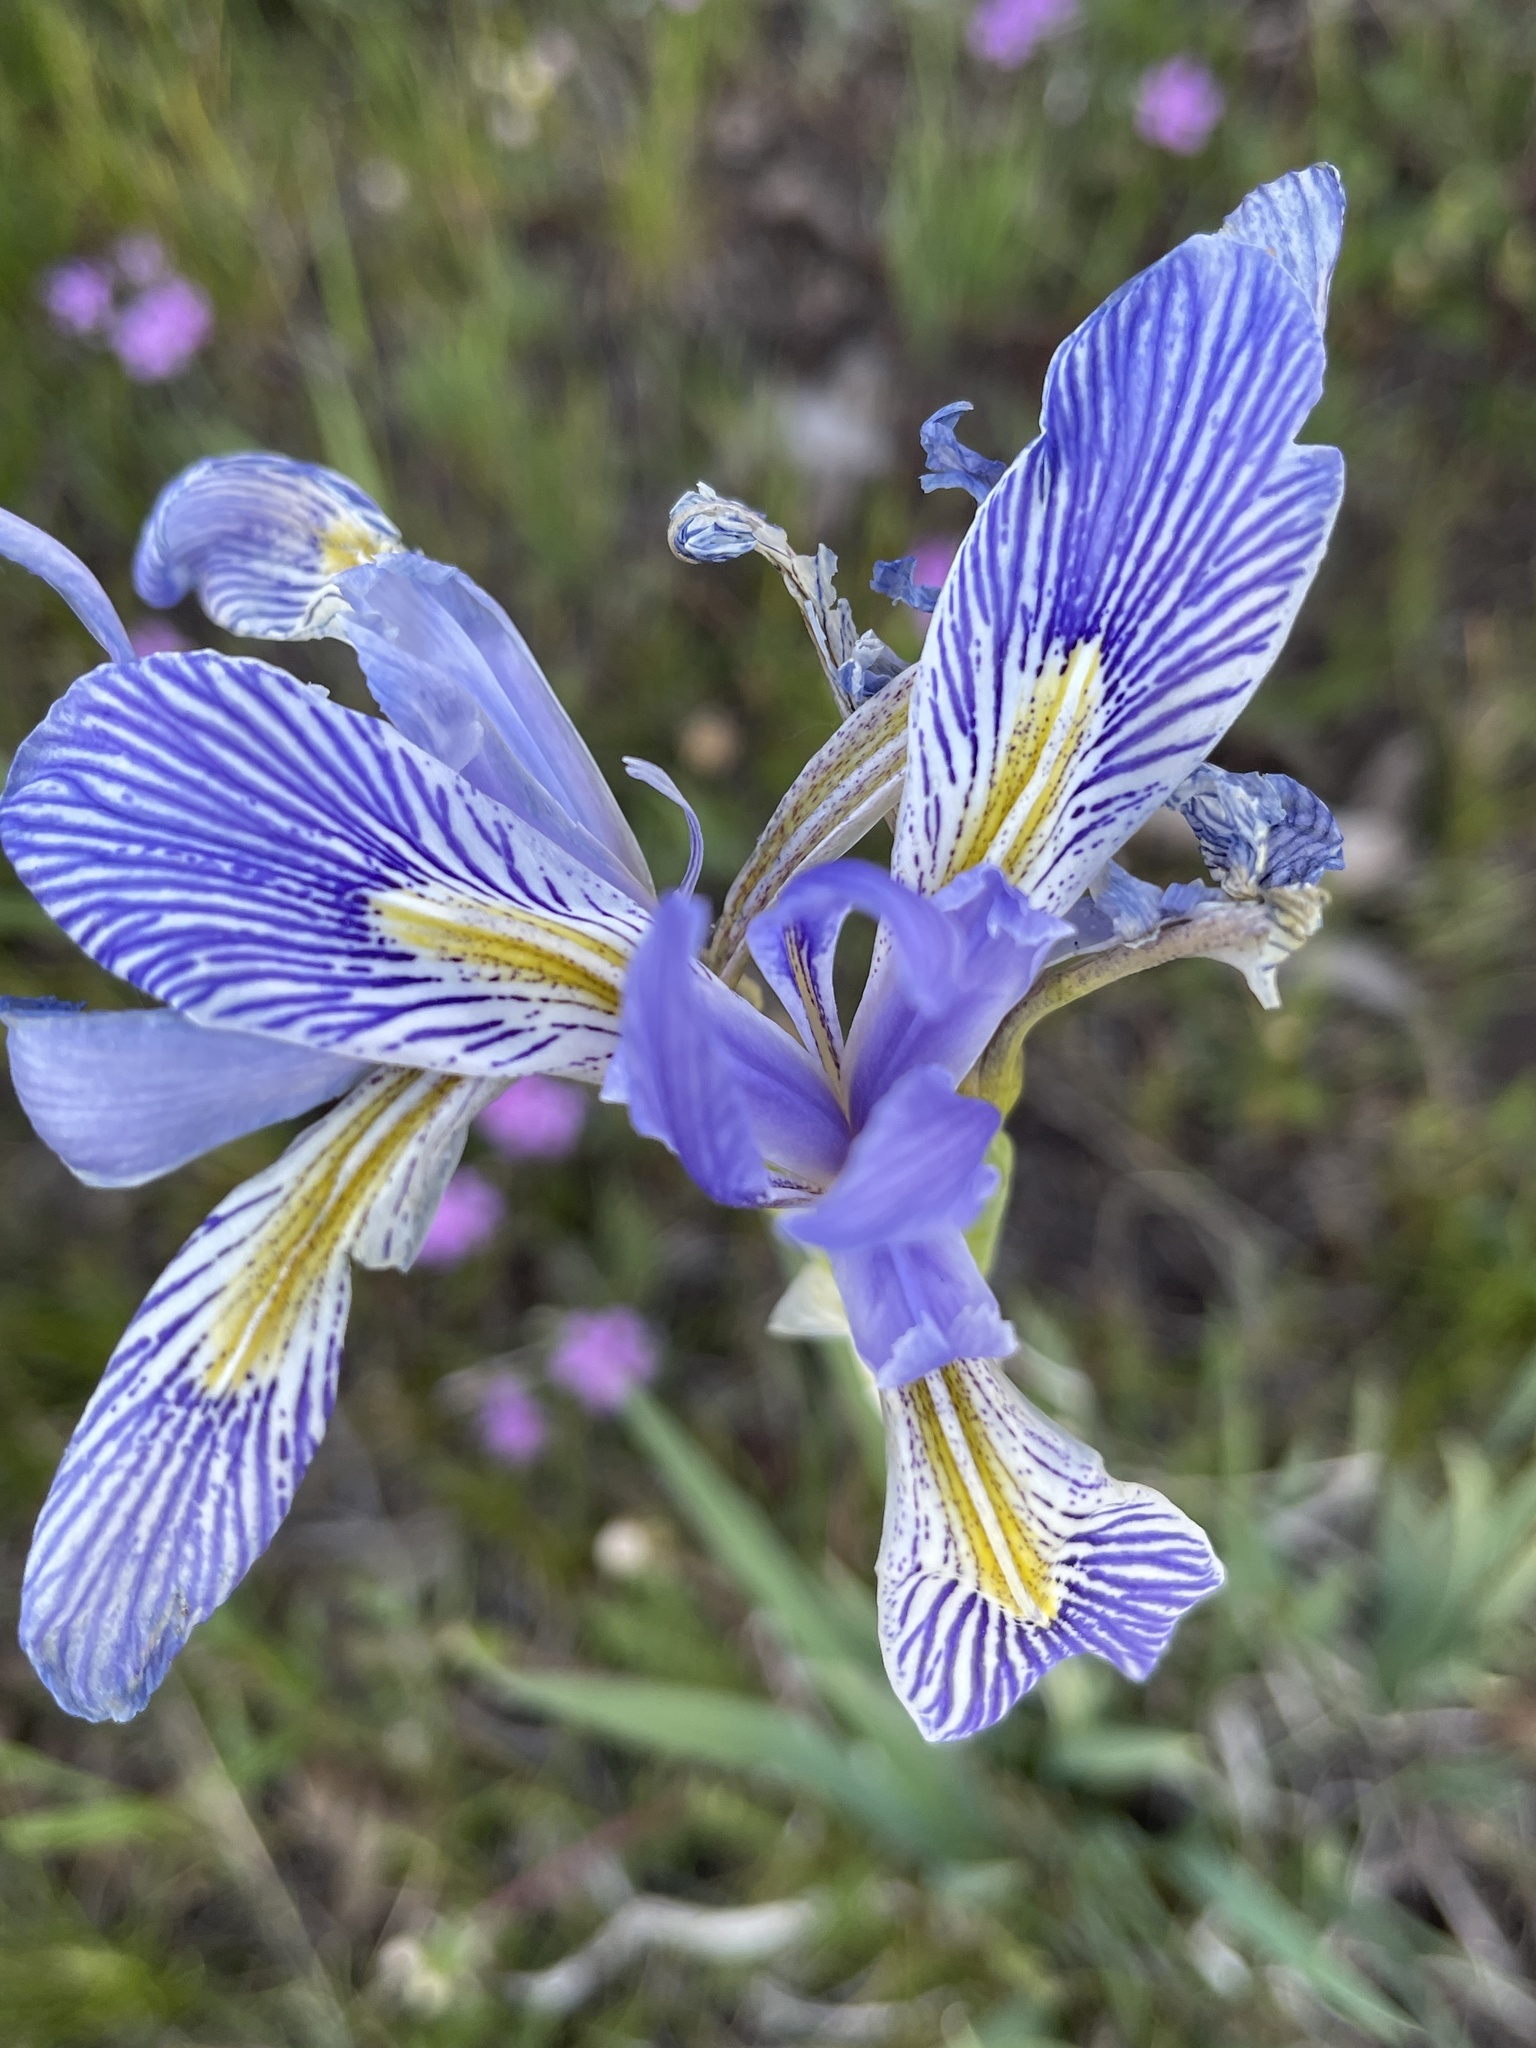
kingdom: Plantae
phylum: Tracheophyta
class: Liliopsida
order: Asparagales
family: Iridaceae
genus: Iris
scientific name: Iris missouriensis
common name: Rocky mountain iris
